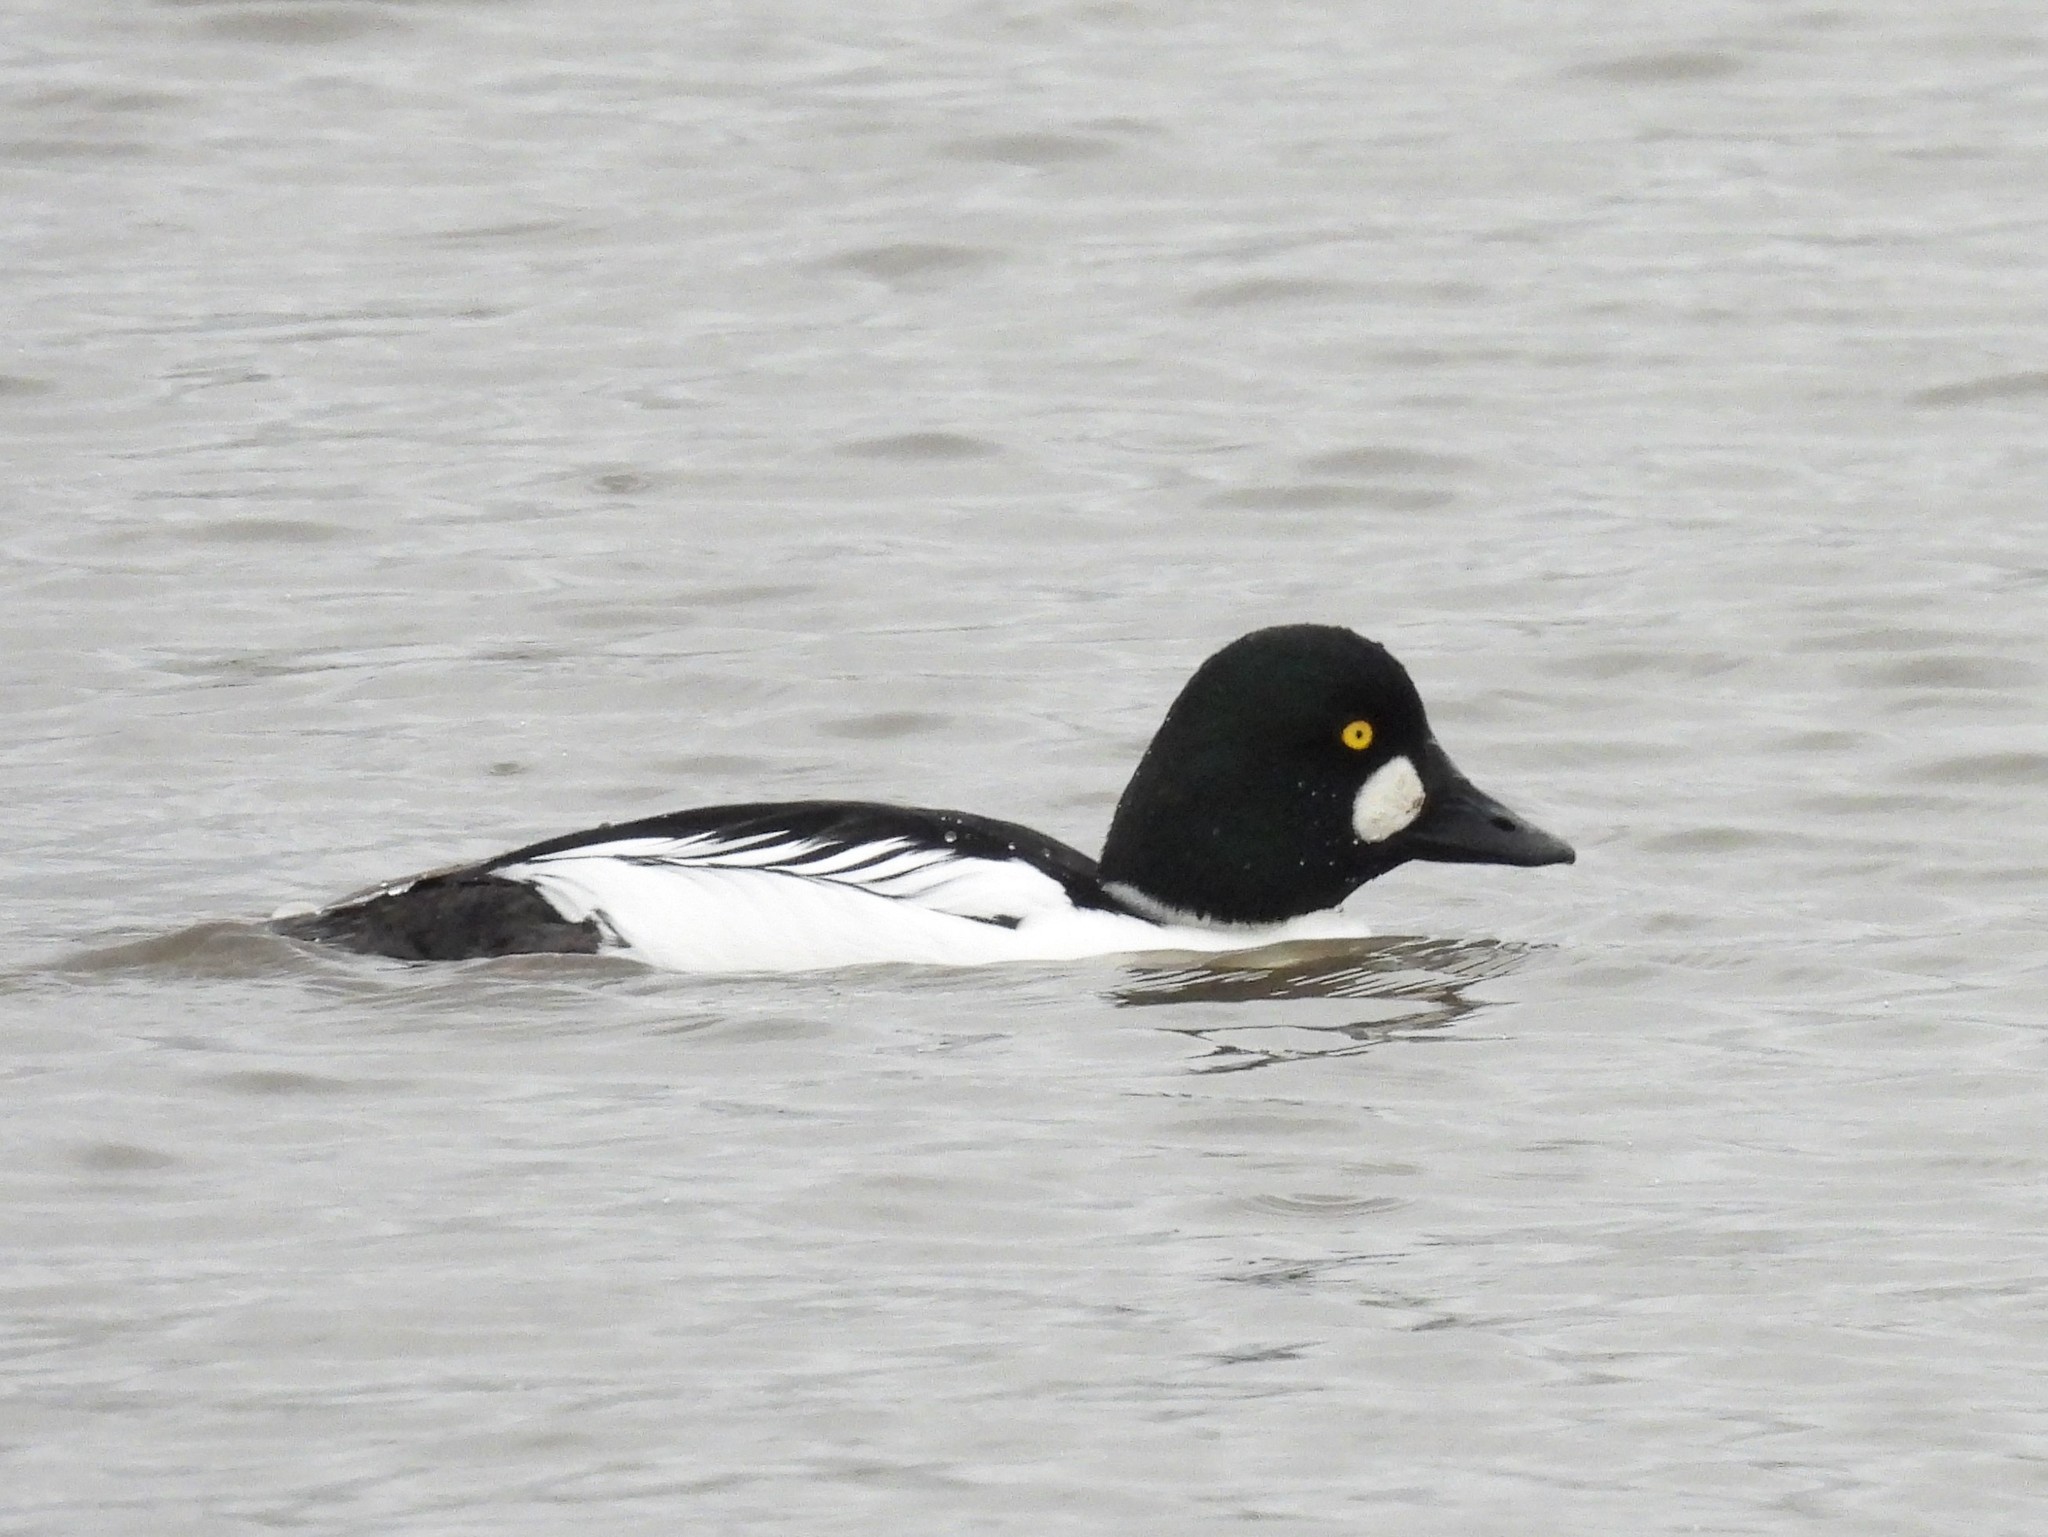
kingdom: Animalia
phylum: Chordata
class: Aves
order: Anseriformes
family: Anatidae
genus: Bucephala
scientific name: Bucephala clangula
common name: Common goldeneye
